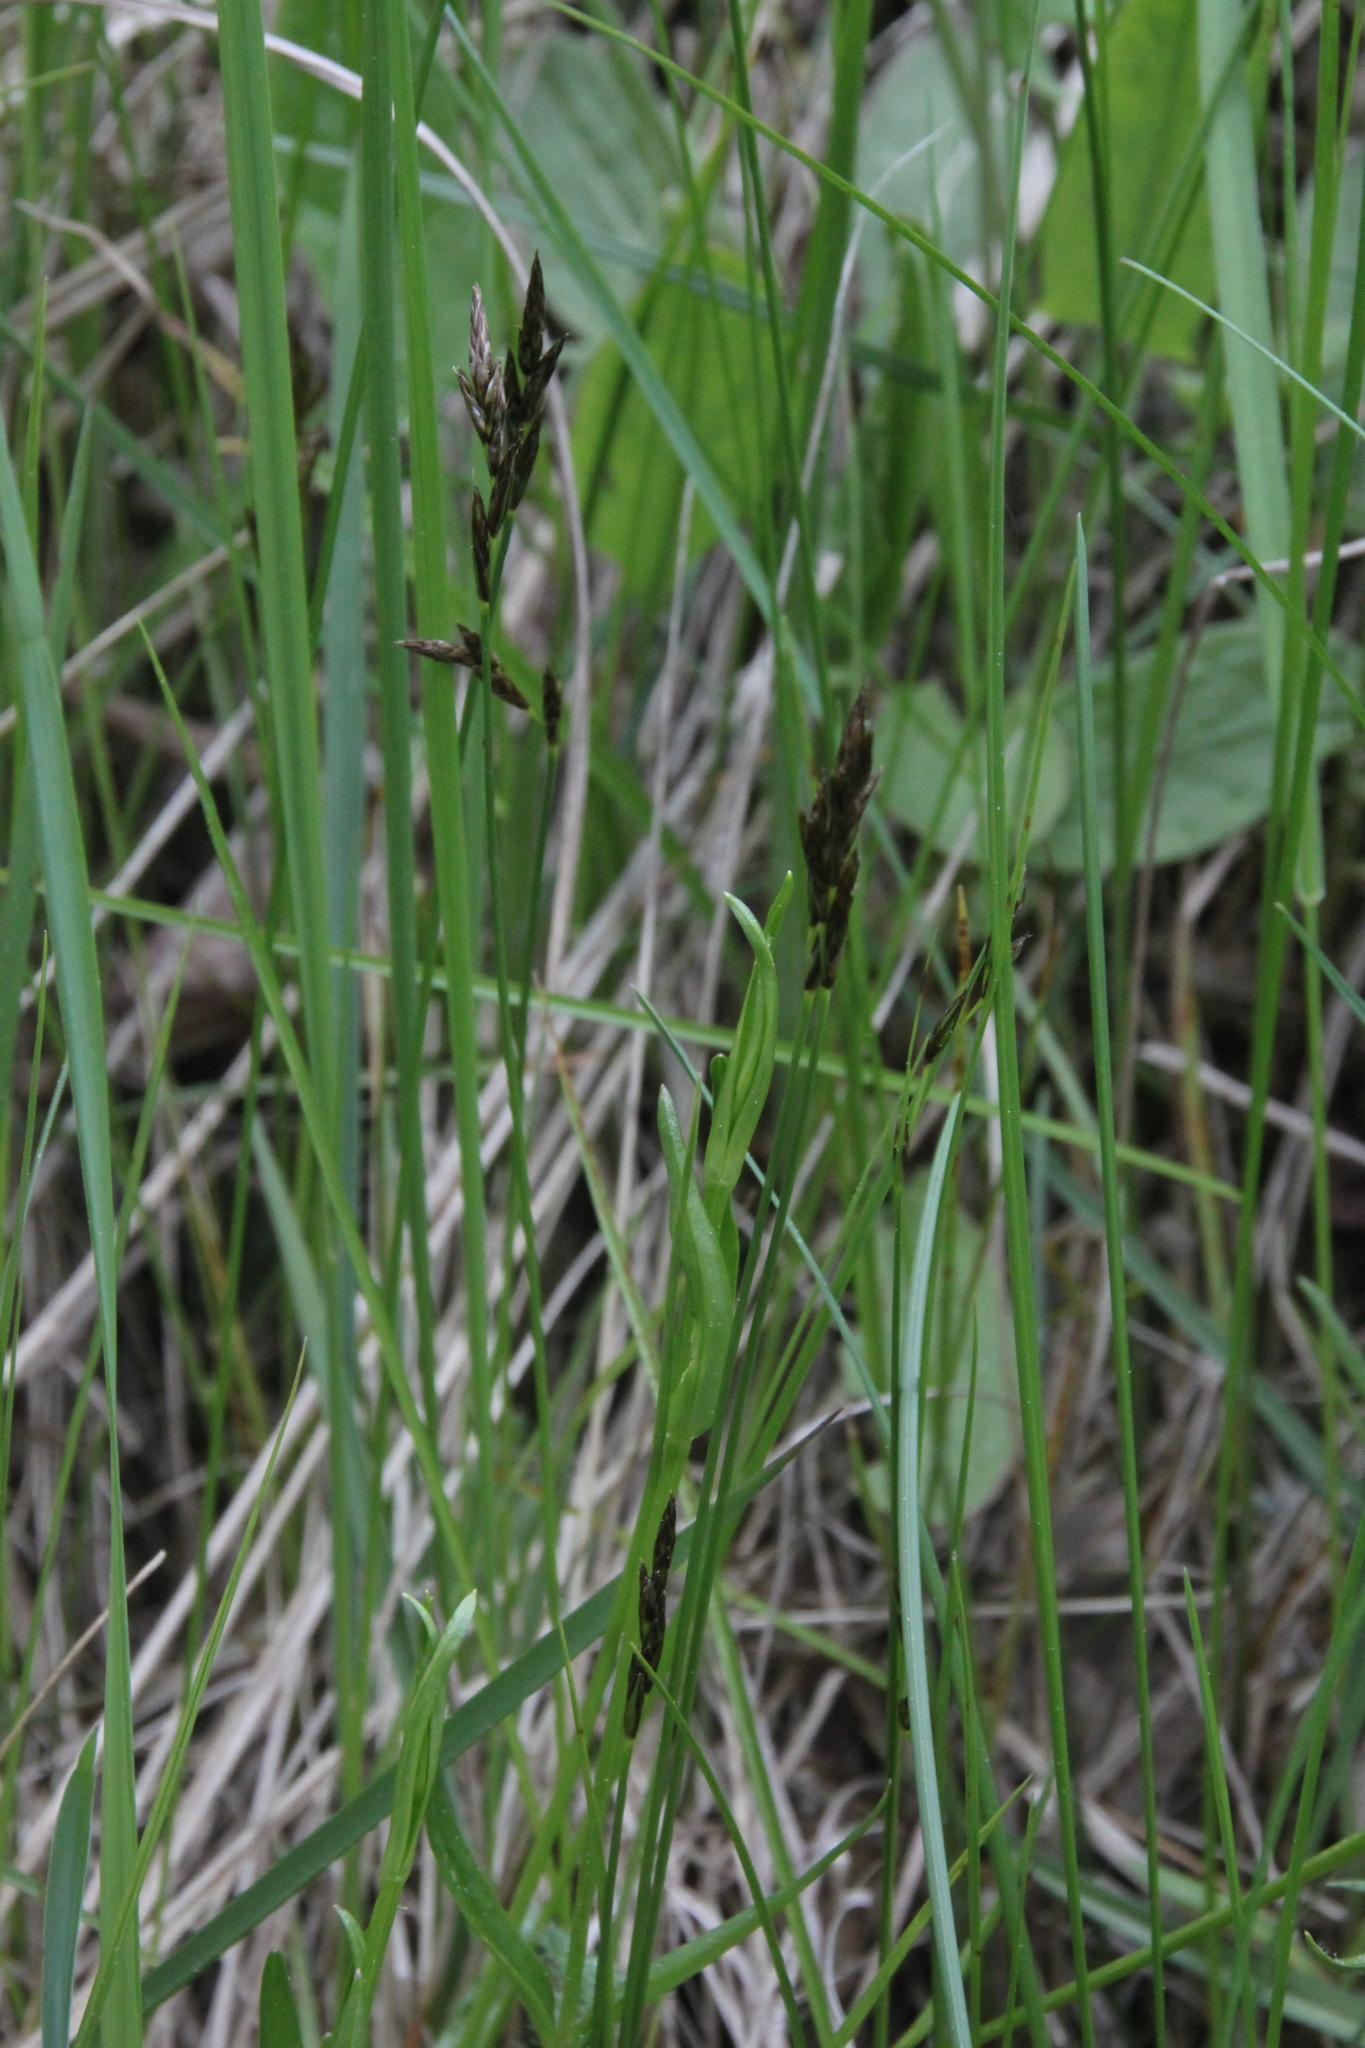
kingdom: Plantae
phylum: Tracheophyta
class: Liliopsida
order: Poales
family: Cyperaceae
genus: Carex
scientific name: Carex praecox
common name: Early sedge
